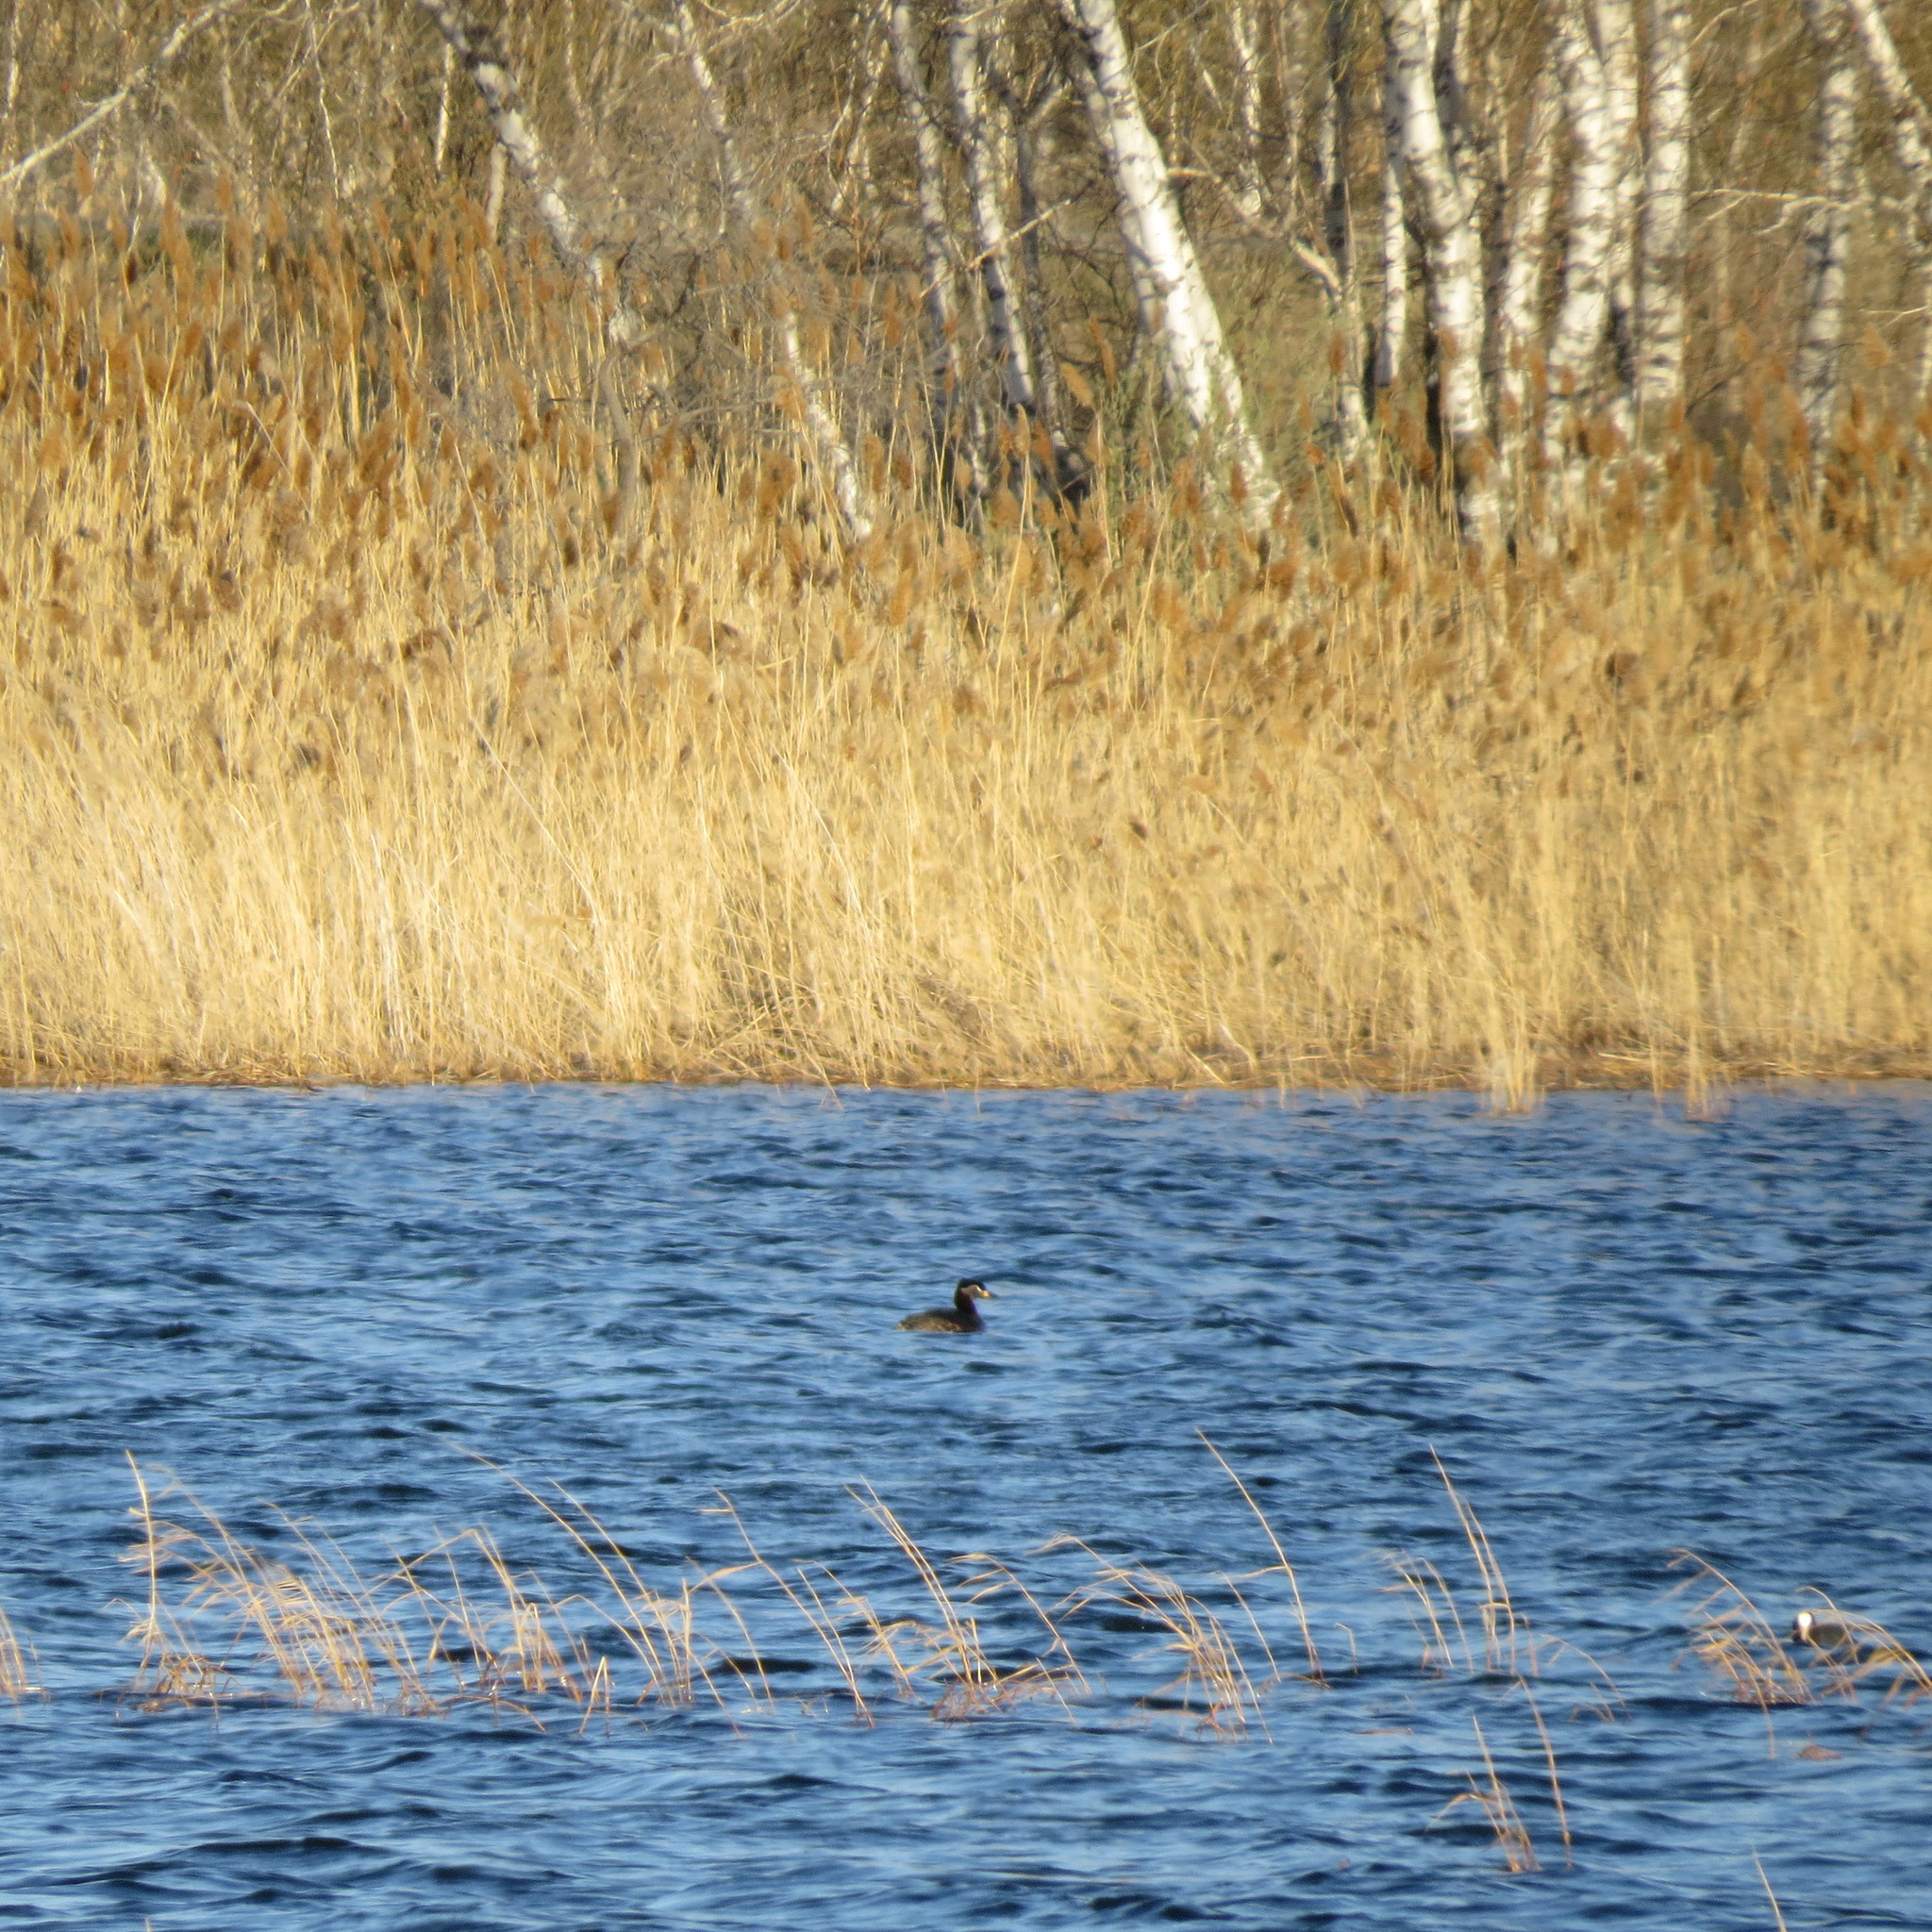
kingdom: Animalia
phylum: Chordata
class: Aves
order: Podicipediformes
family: Podicipedidae
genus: Podiceps
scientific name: Podiceps grisegena
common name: Red-necked grebe
